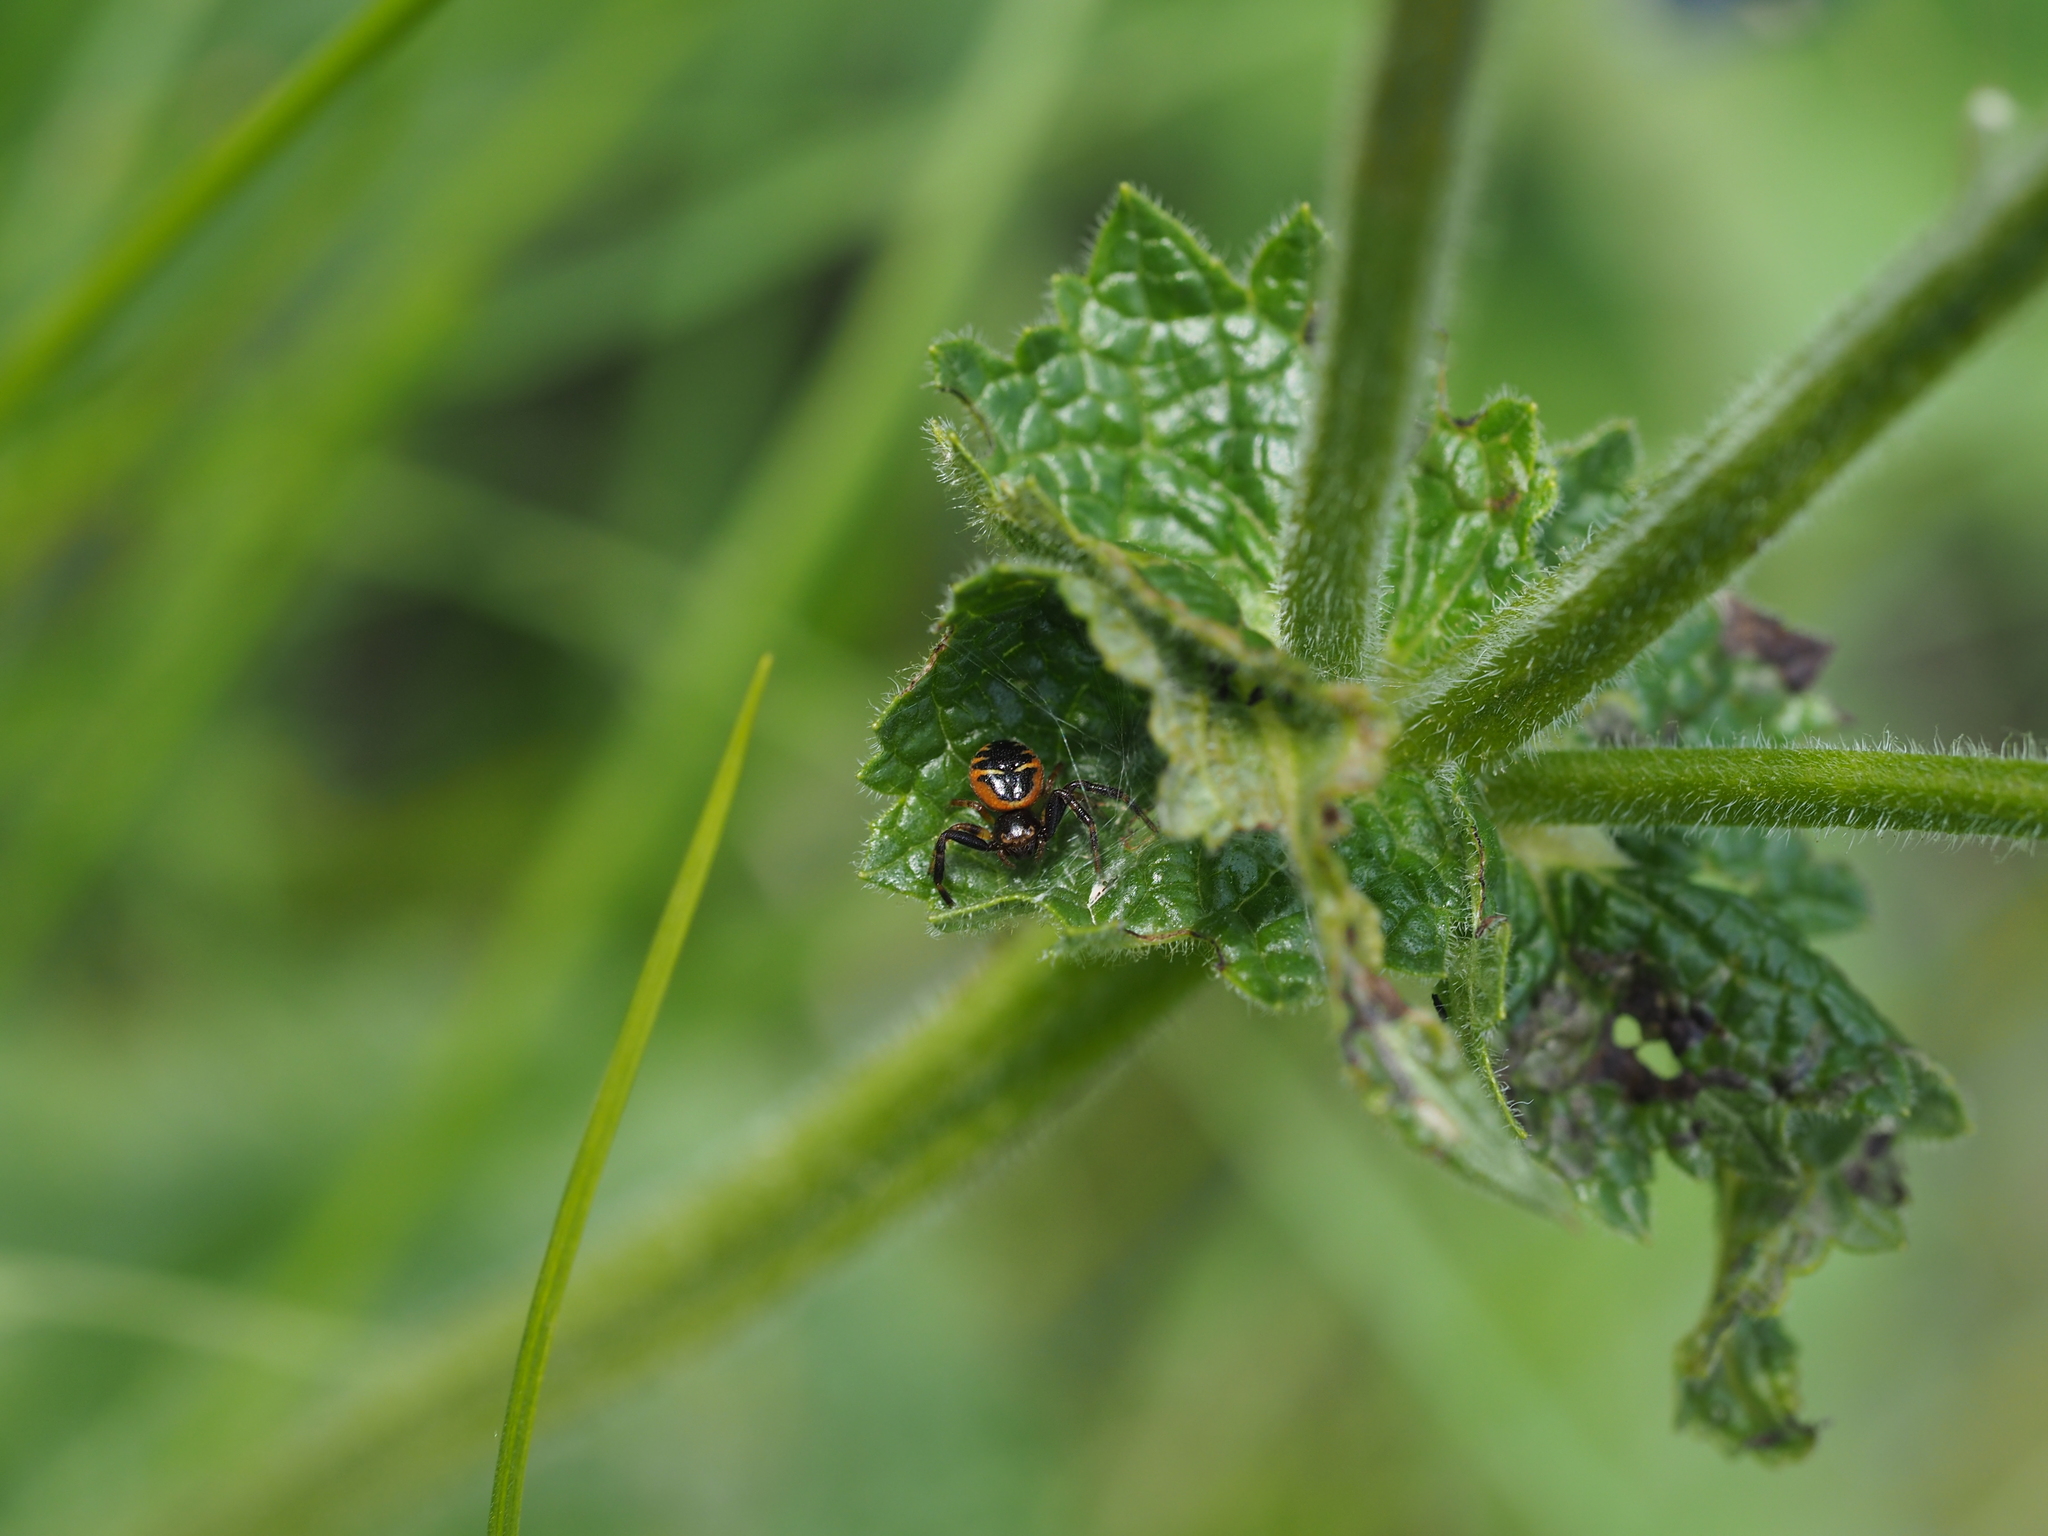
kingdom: Animalia
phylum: Arthropoda
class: Arachnida
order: Araneae
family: Thomisidae
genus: Synema
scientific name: Synema globosum
